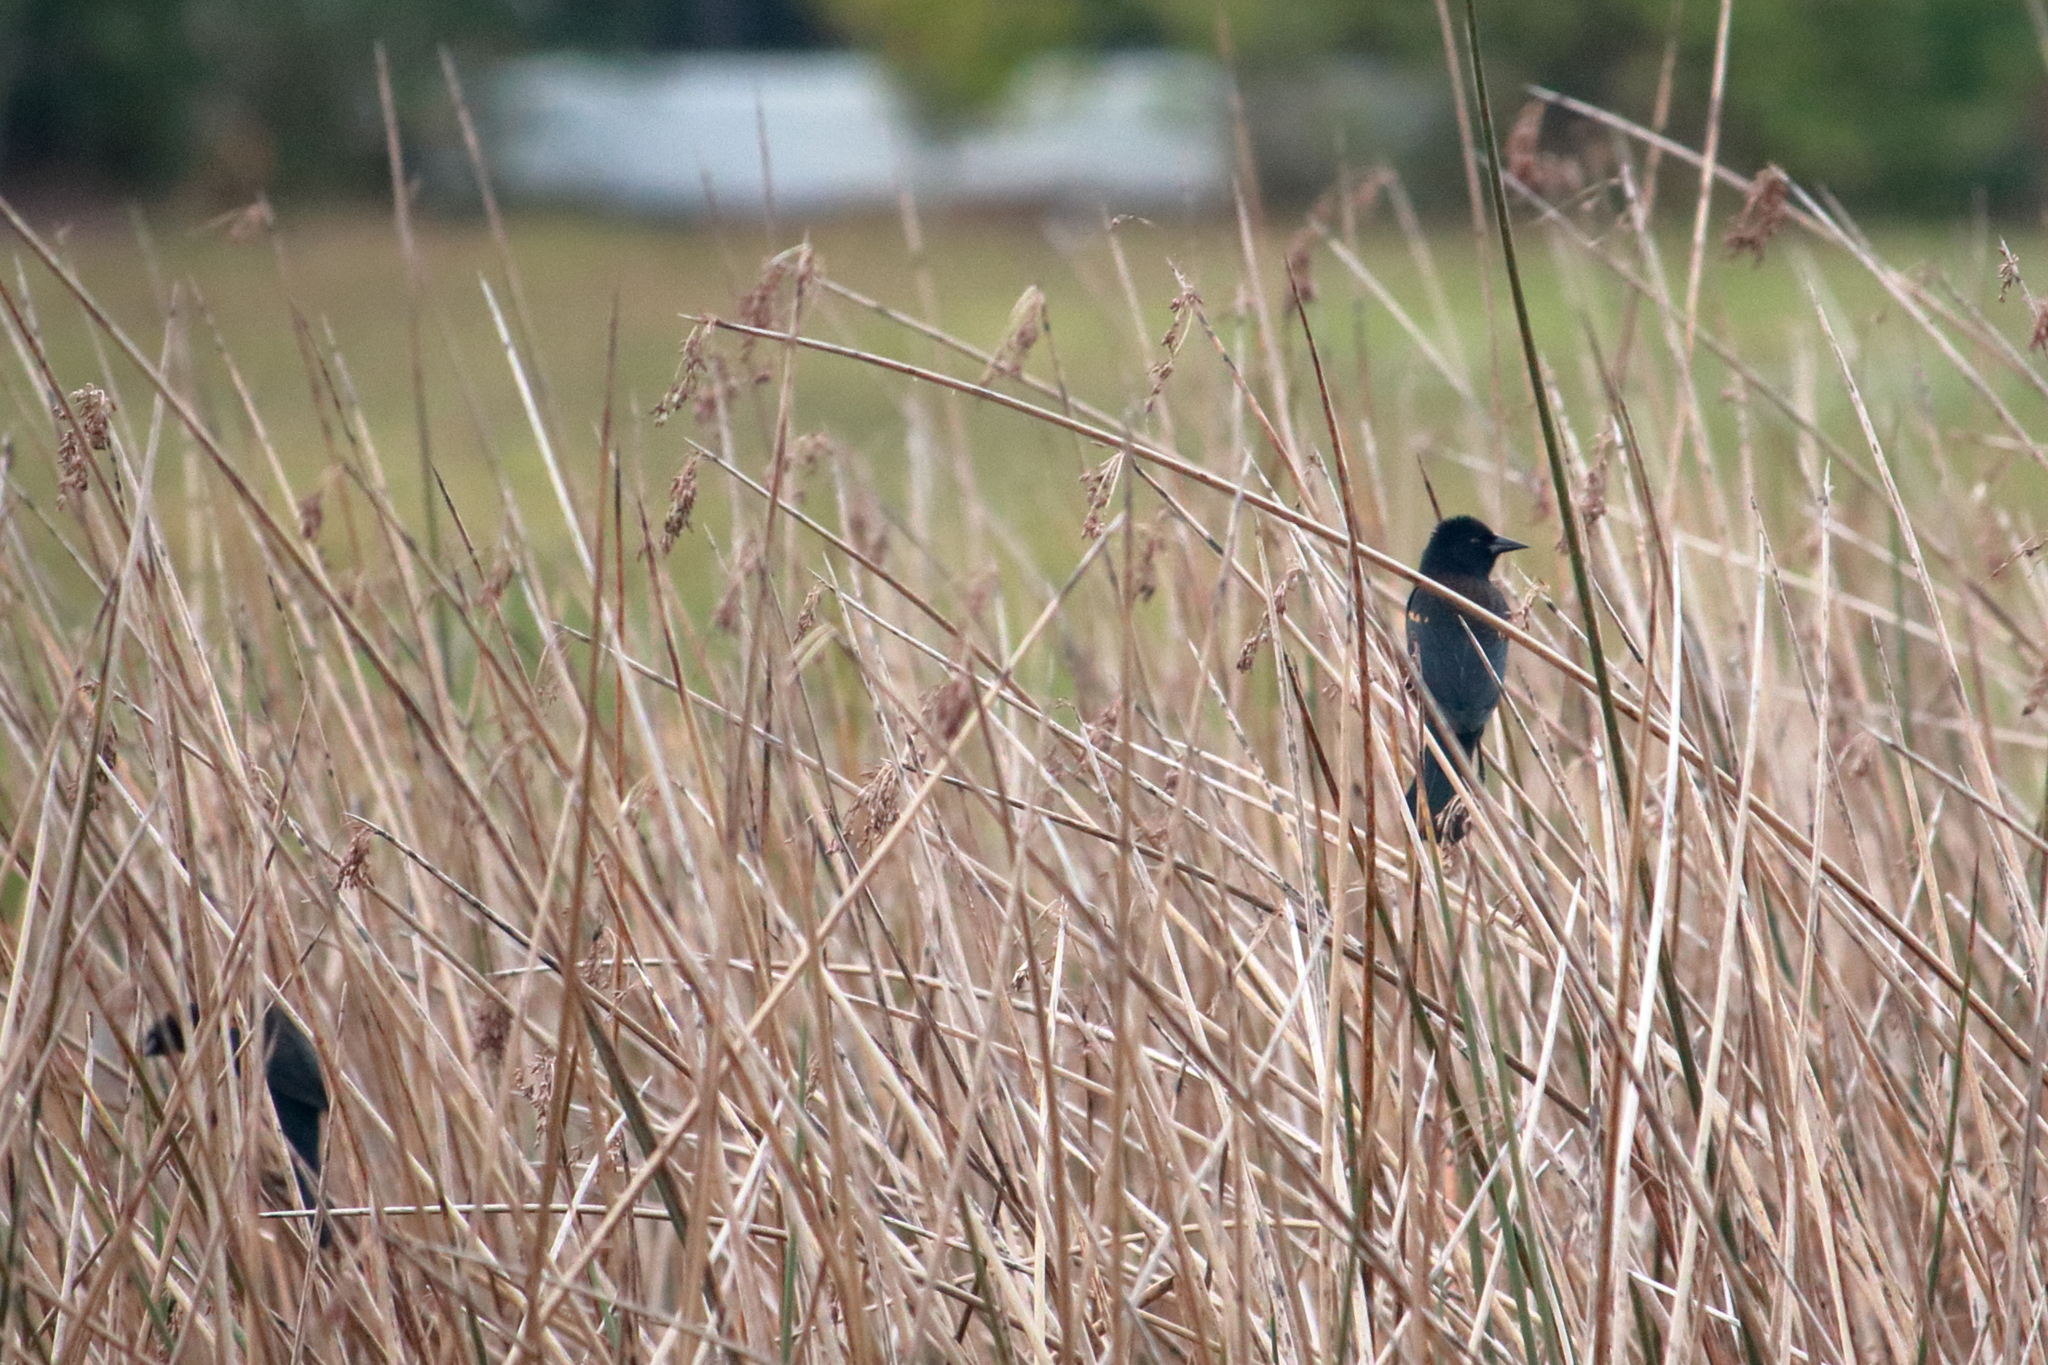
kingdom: Animalia
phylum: Chordata
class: Aves
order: Passeriformes
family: Icteridae
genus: Agelaius
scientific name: Agelaius phoeniceus
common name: Red-winged blackbird
